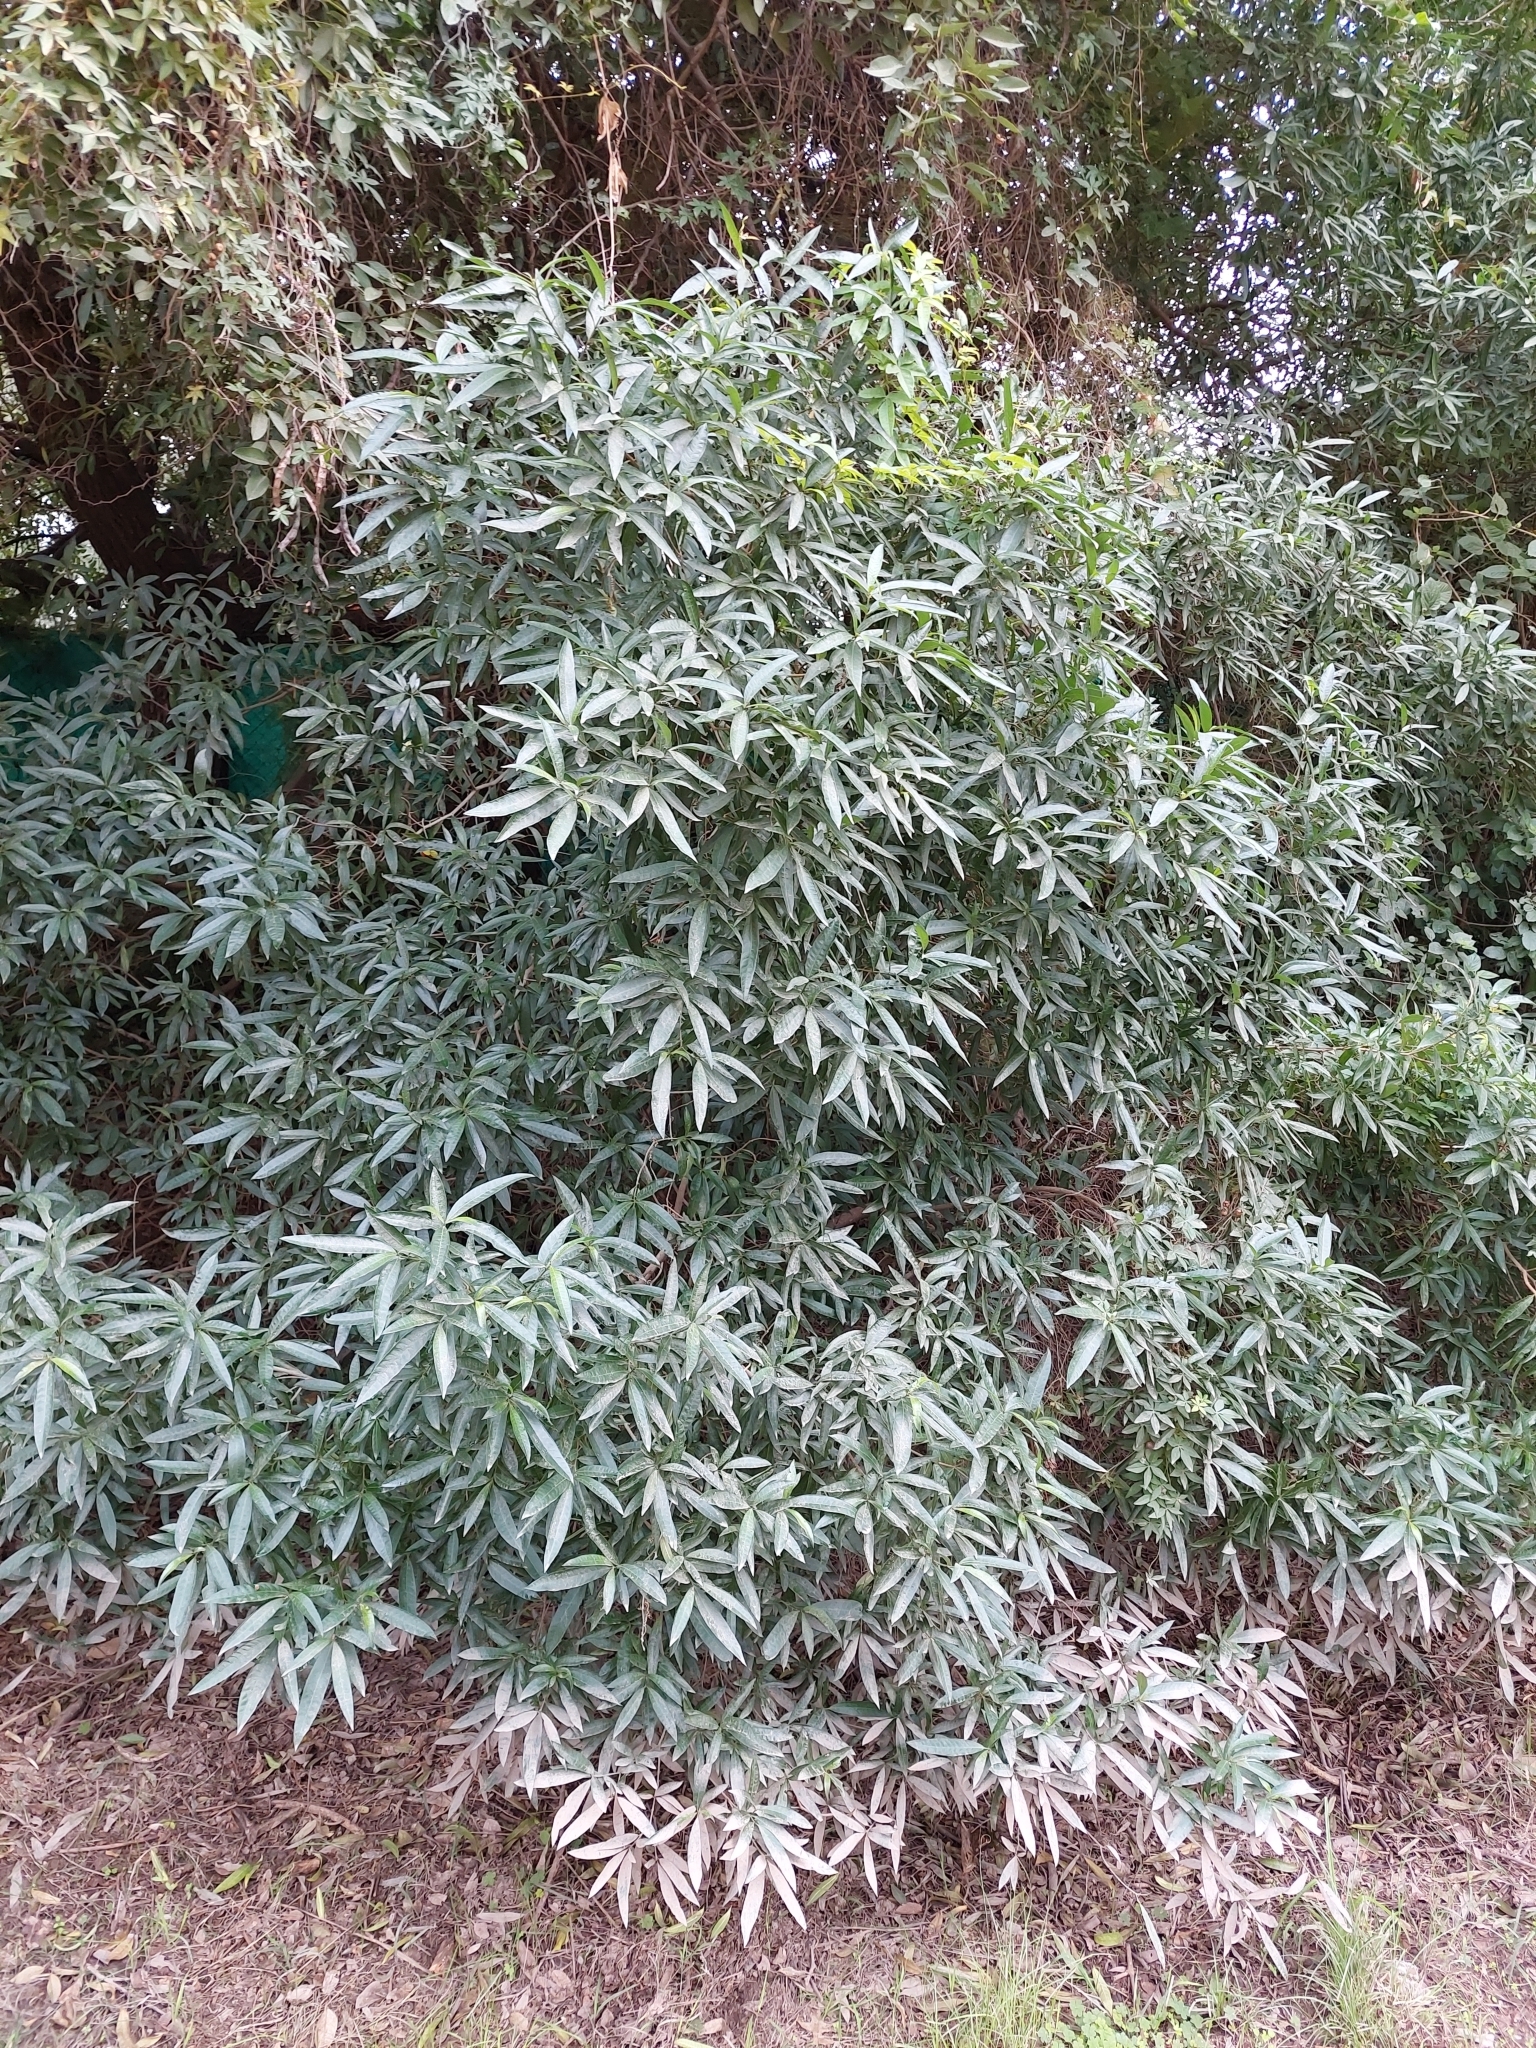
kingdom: Plantae
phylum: Tracheophyta
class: Magnoliopsida
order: Gentianales
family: Apocynaceae
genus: Tabernaemontana
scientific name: Tabernaemontana catharinensis
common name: Pinwheel-flower
